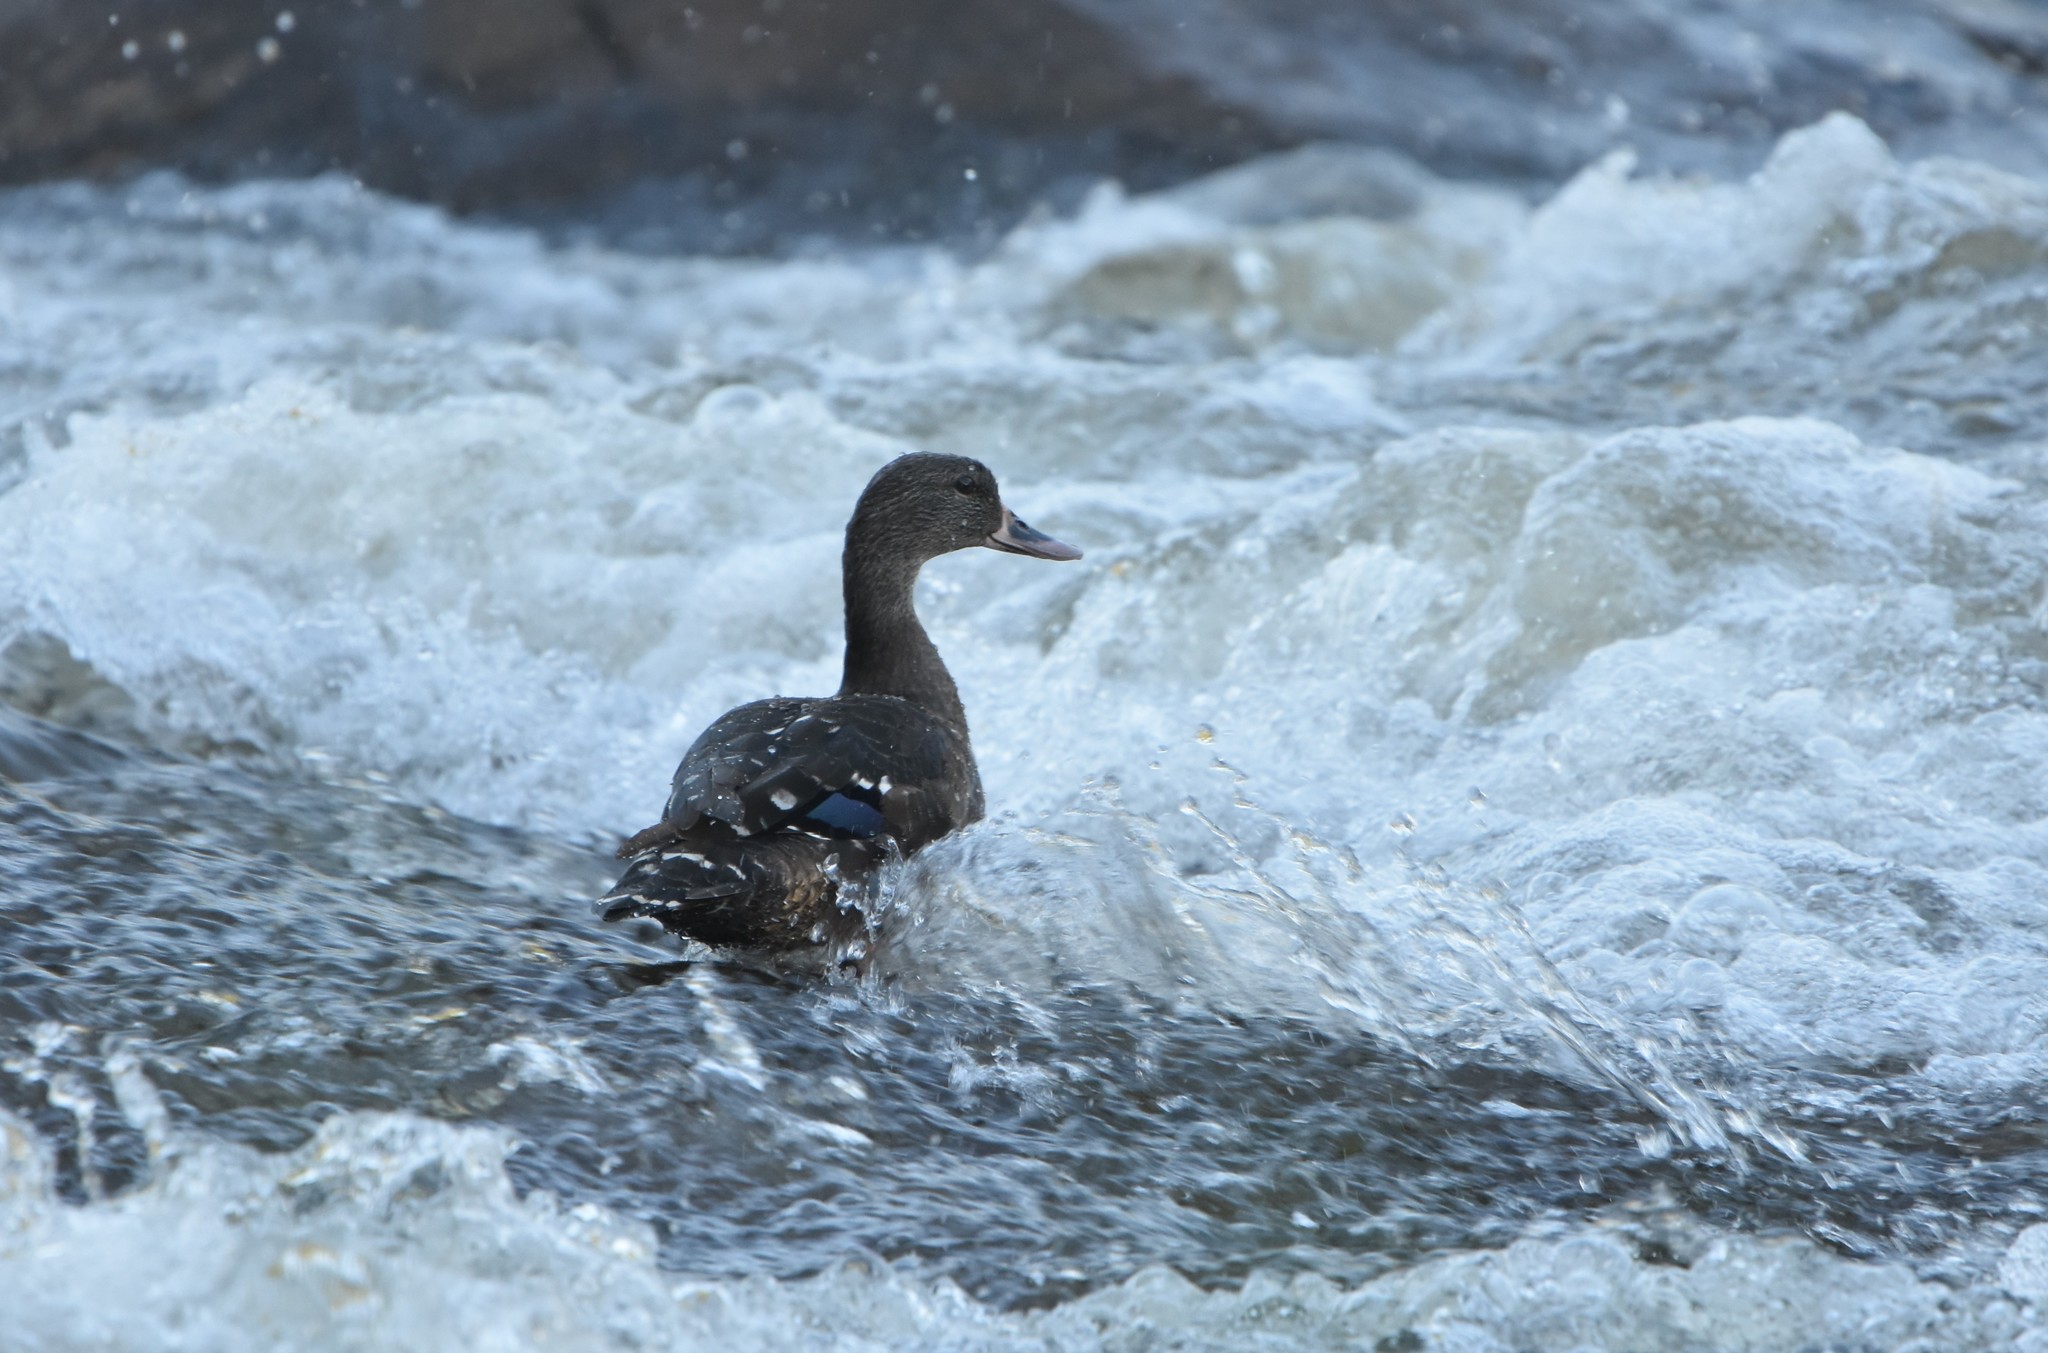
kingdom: Animalia
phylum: Chordata
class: Aves
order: Anseriformes
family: Anatidae
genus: Anas
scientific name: Anas sparsa
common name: African black duck
